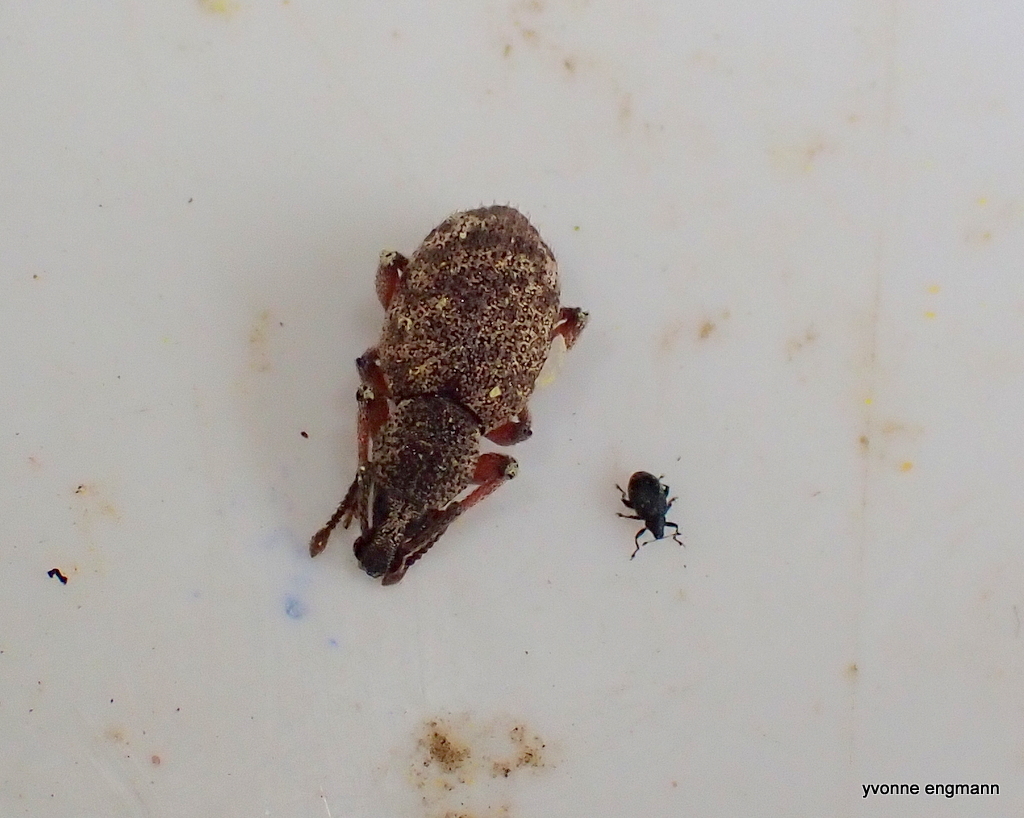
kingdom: Animalia
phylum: Arthropoda
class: Insecta
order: Coleoptera
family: Curculionidae
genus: Otiorhynchus
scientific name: Otiorhynchus singularis
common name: Clay-coloured weevil
